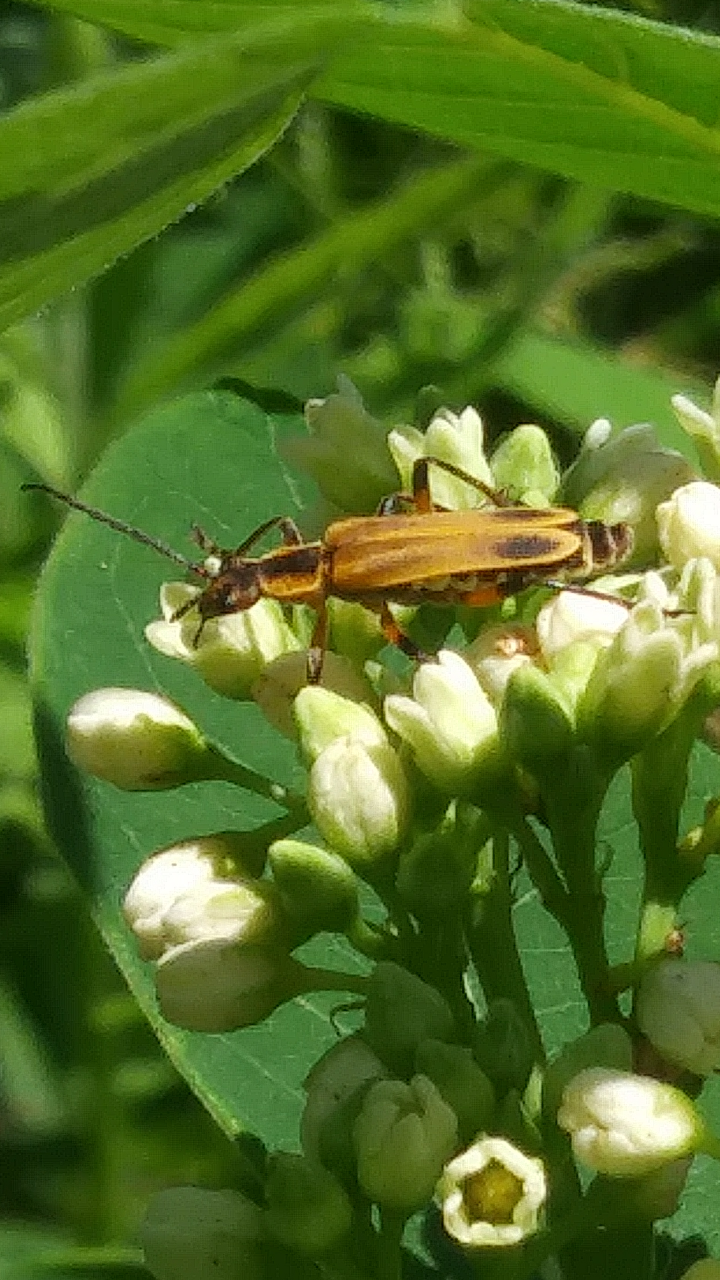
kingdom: Animalia
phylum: Arthropoda
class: Insecta
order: Coleoptera
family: Cantharidae
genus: Chauliognathus
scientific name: Chauliognathus marginatus
